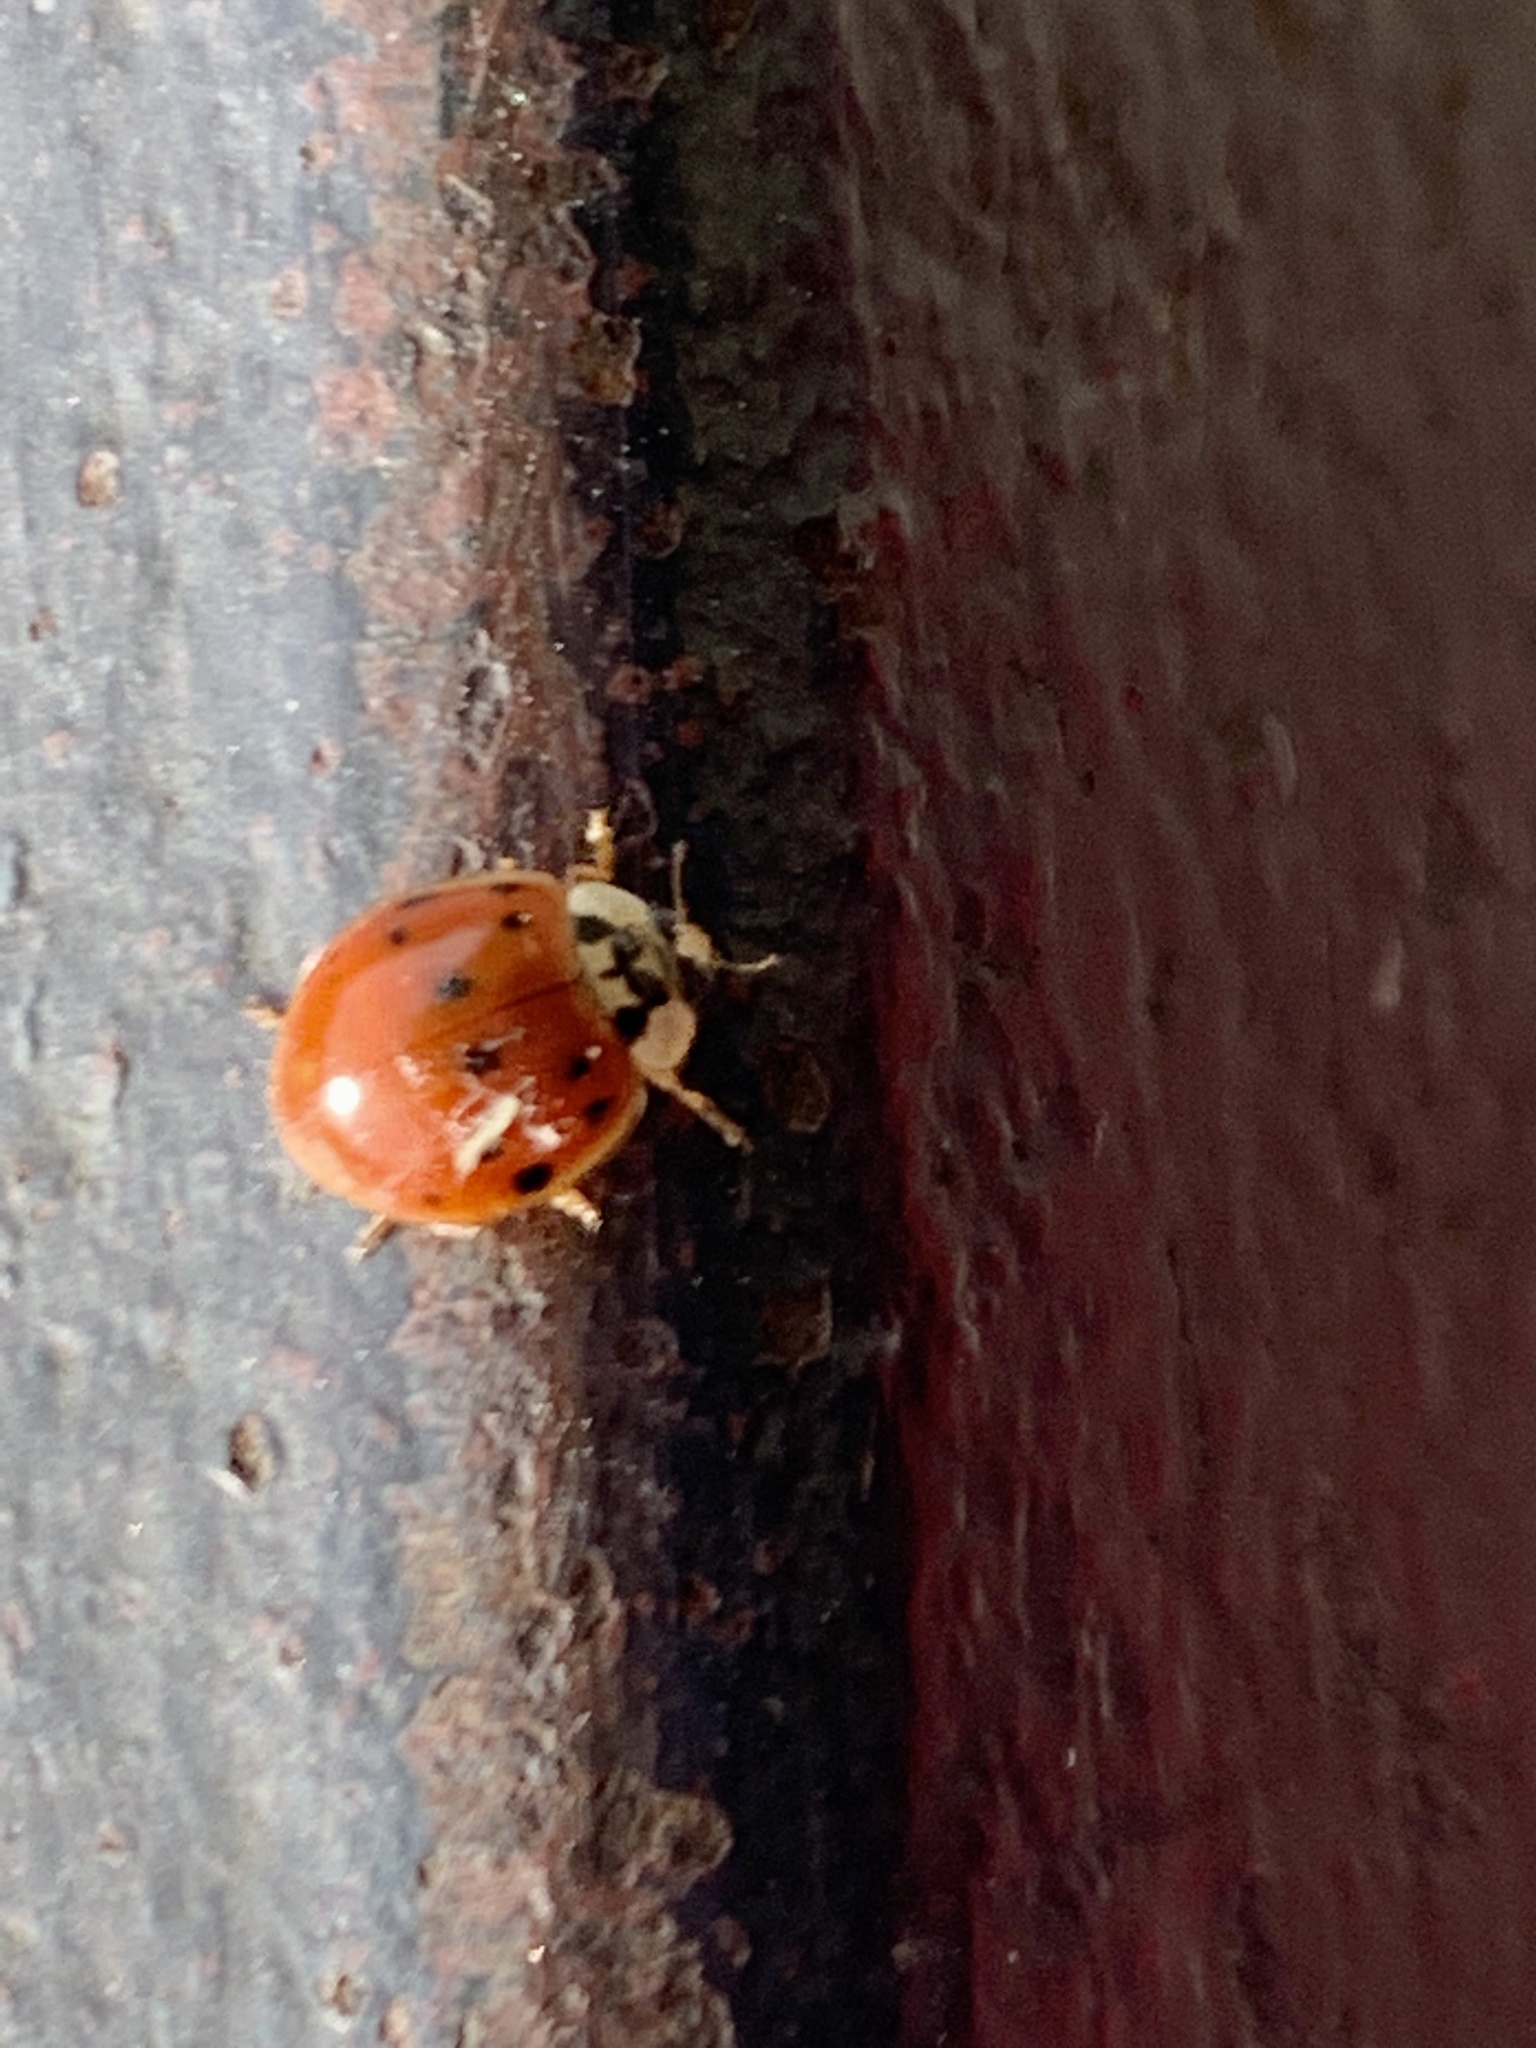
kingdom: Animalia
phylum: Arthropoda
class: Insecta
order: Coleoptera
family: Coccinellidae
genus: Harmonia
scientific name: Harmonia axyridis
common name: Harlequin ladybird
